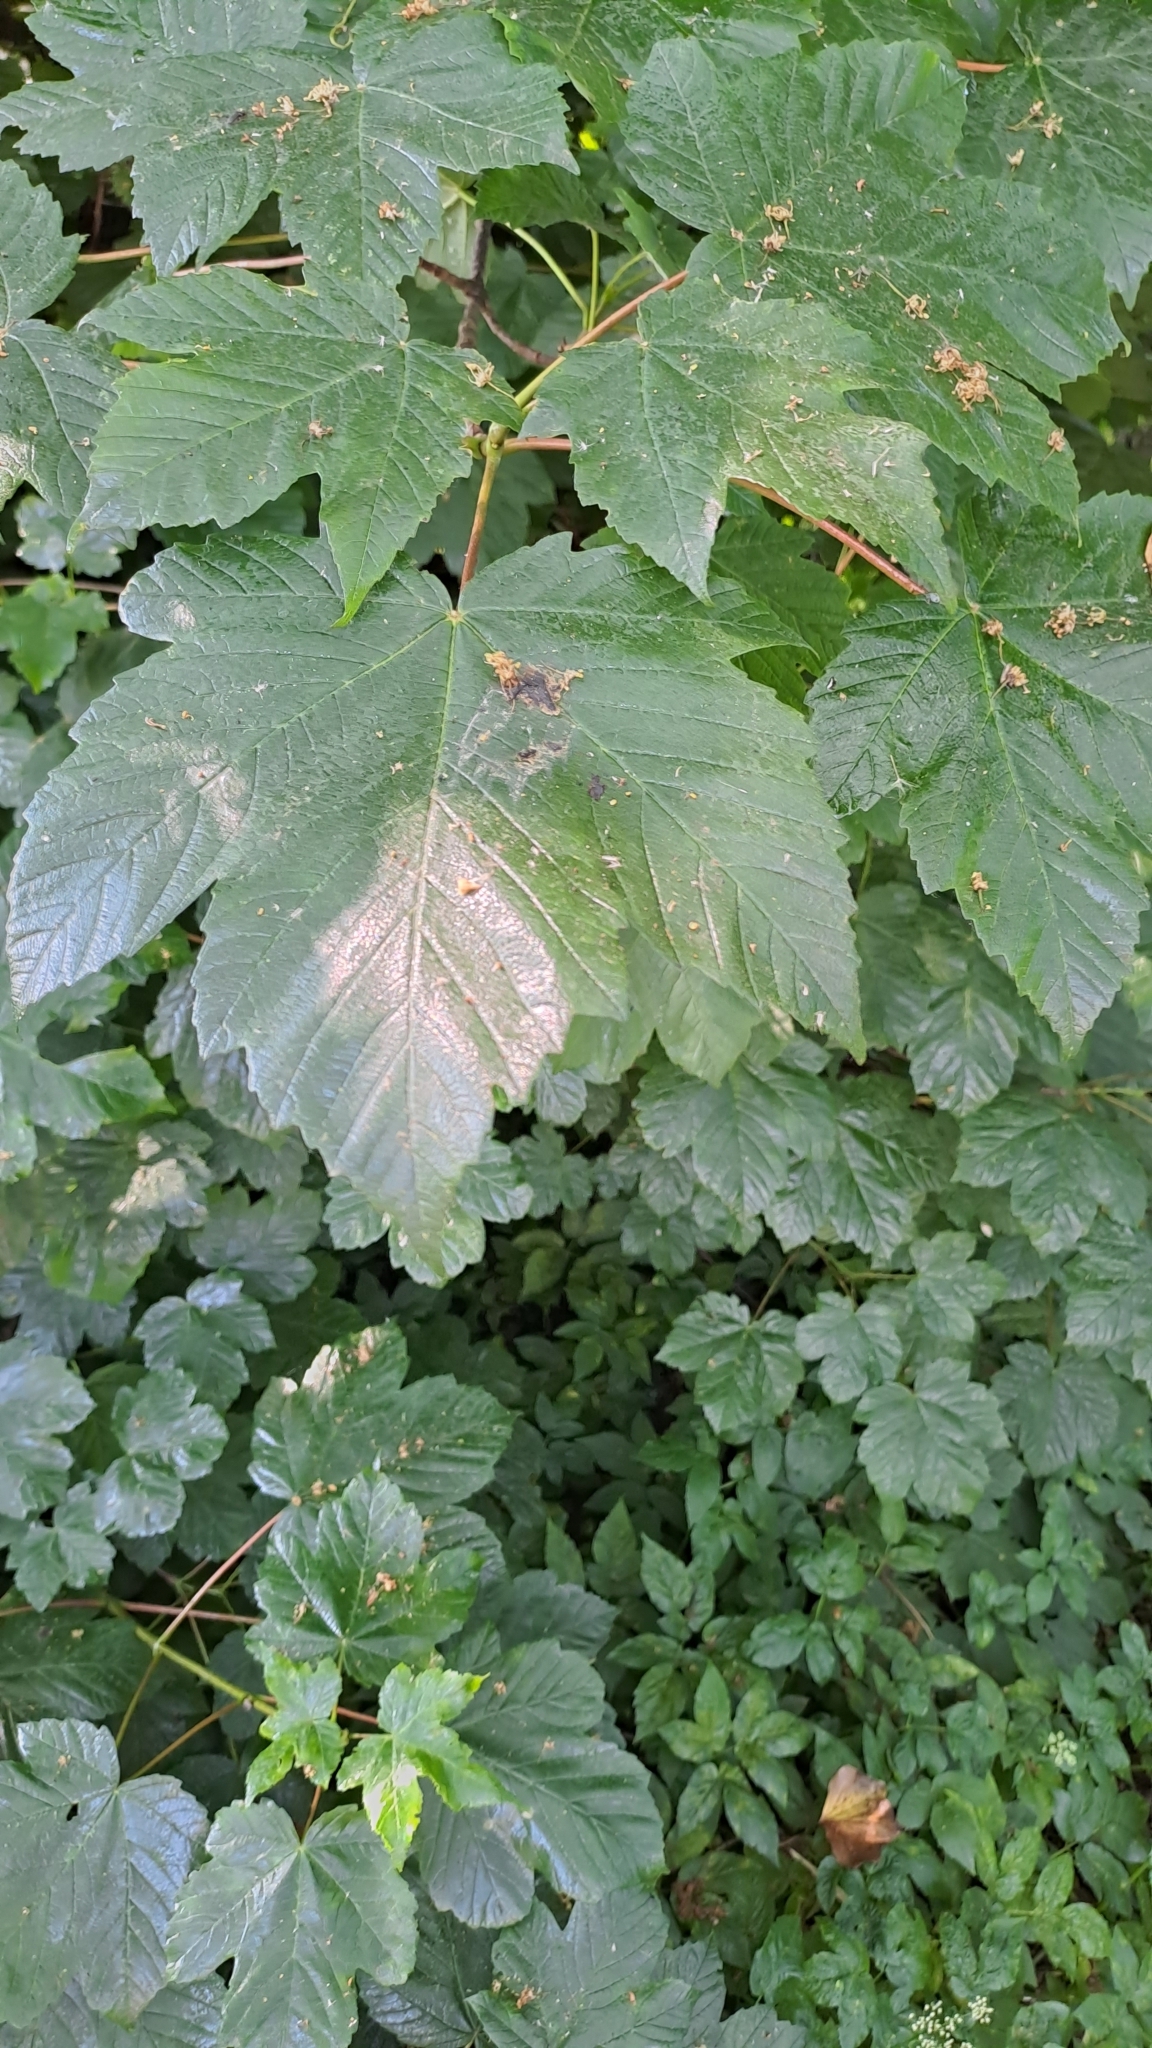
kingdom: Plantae
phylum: Tracheophyta
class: Magnoliopsida
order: Sapindales
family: Sapindaceae
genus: Acer
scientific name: Acer pseudoplatanus
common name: Sycamore
